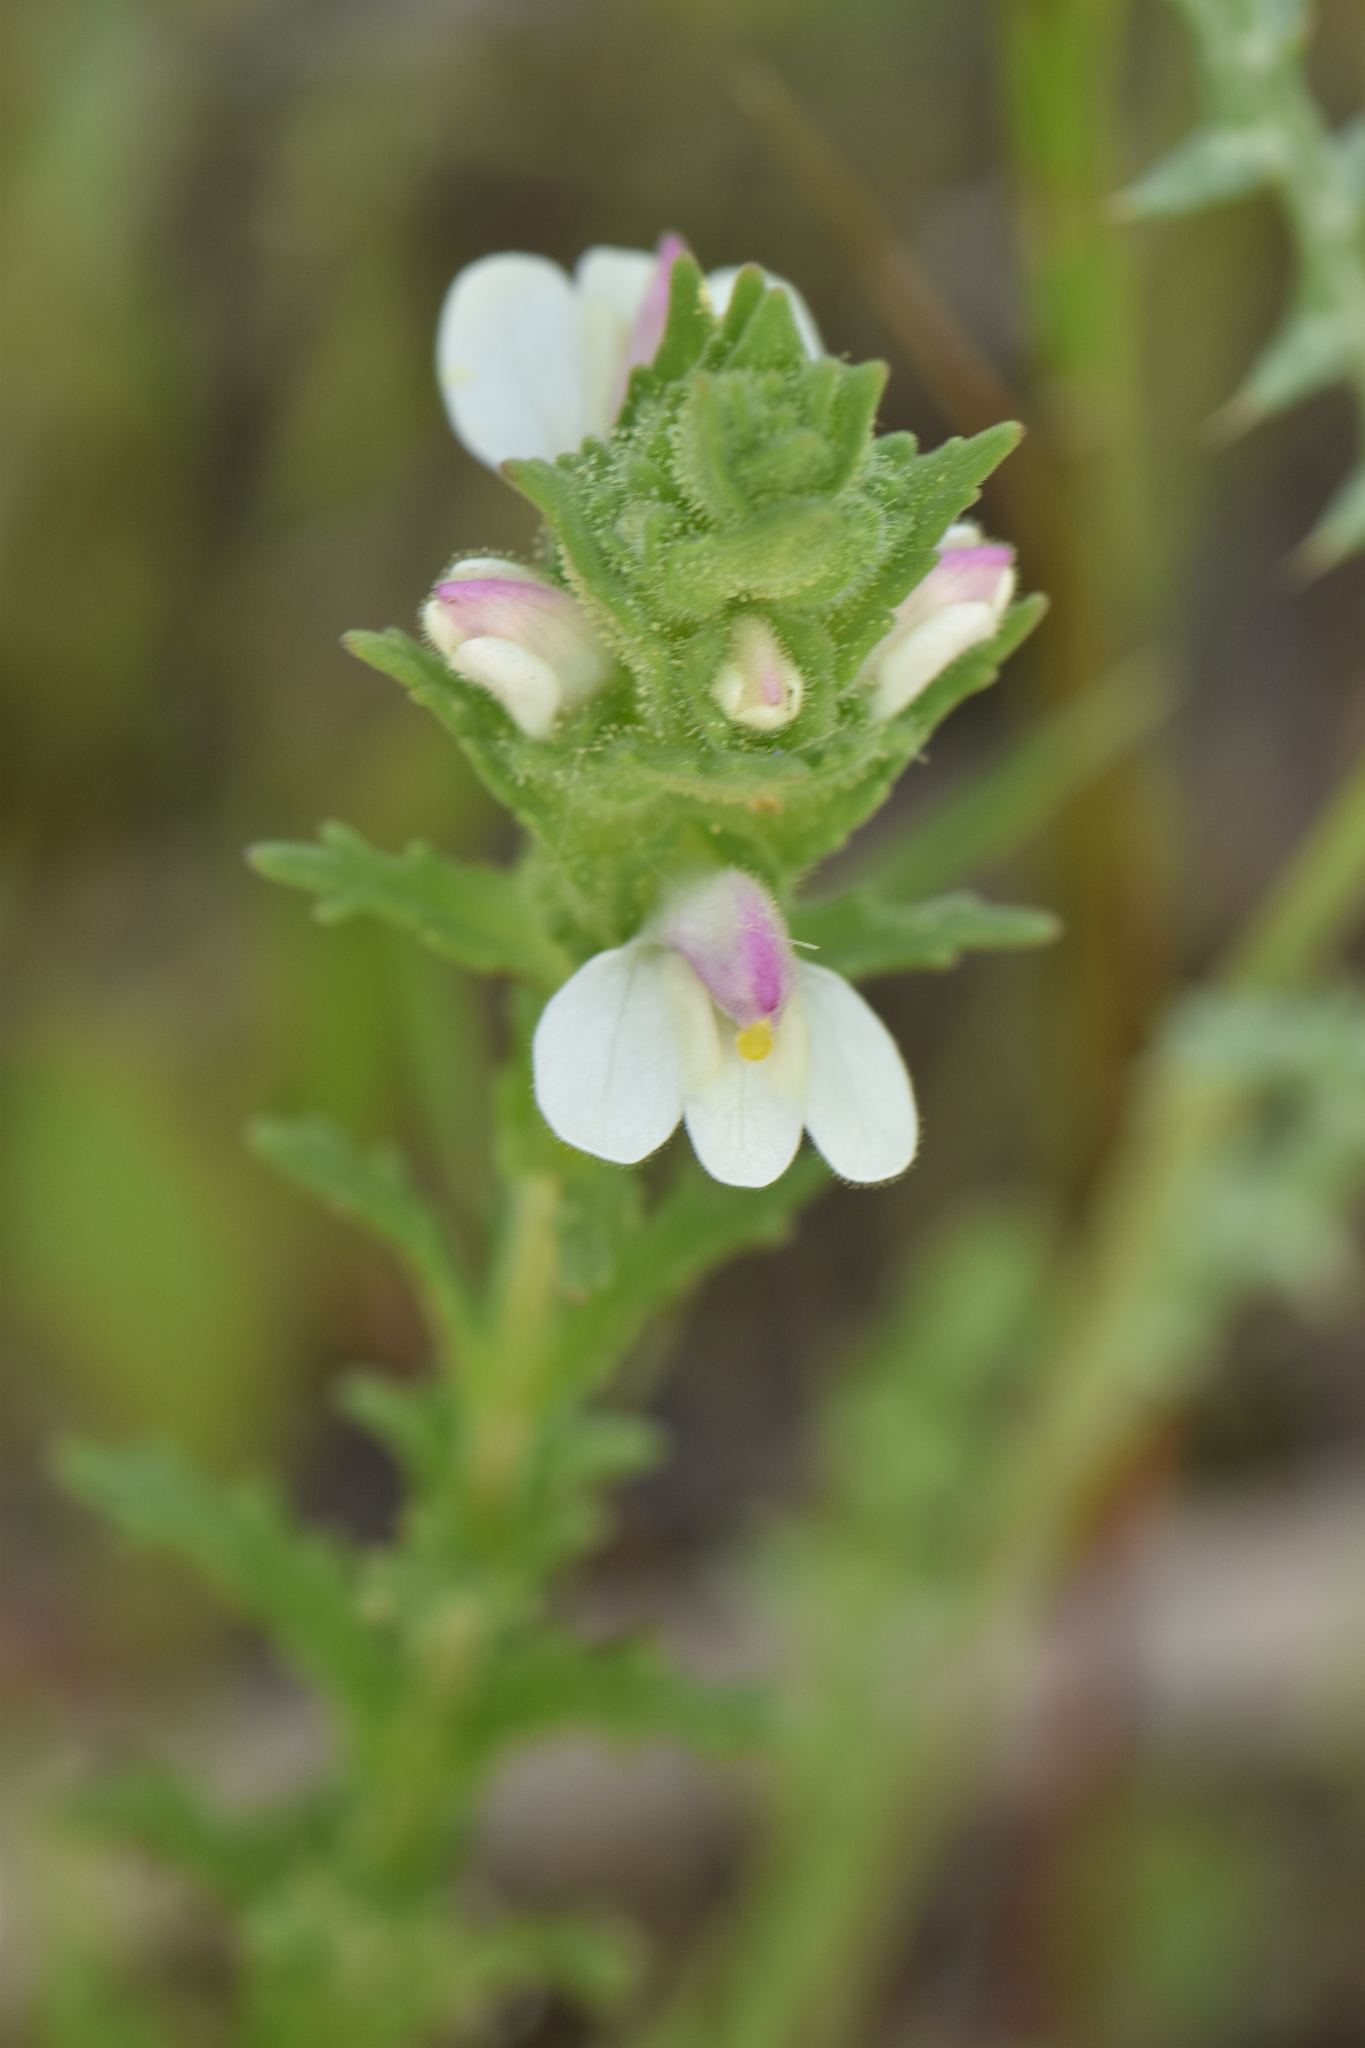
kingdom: Plantae
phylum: Tracheophyta
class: Magnoliopsida
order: Lamiales
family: Orobanchaceae
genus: Bellardia
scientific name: Bellardia trixago
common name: Mediterranean lineseed
